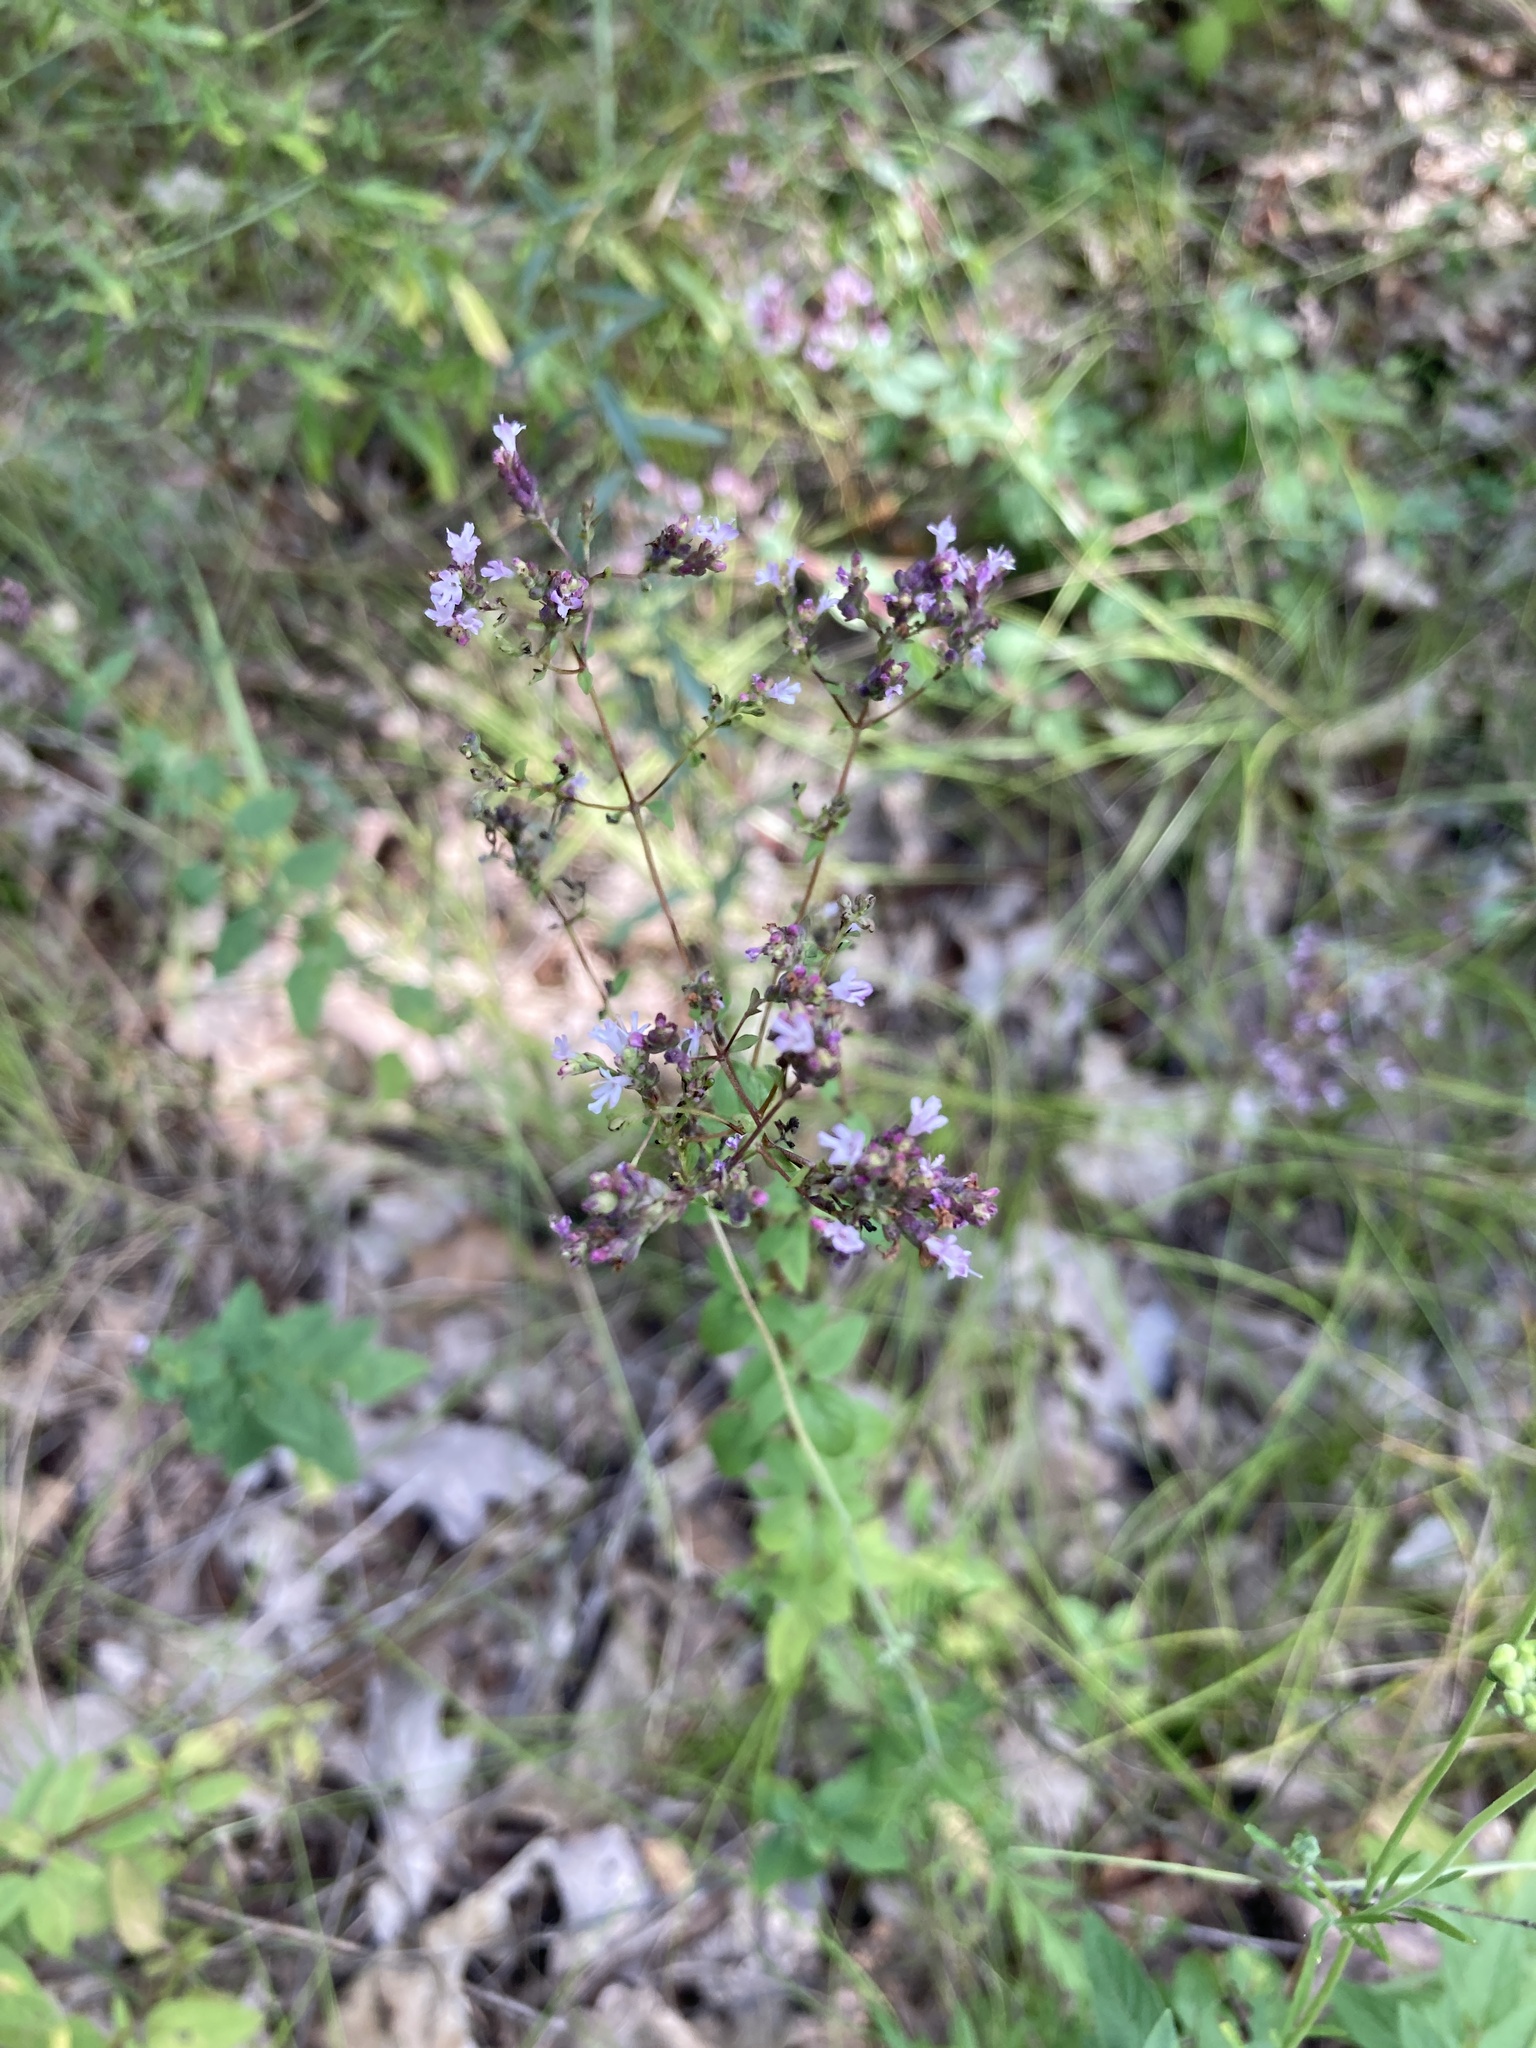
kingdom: Plantae
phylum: Tracheophyta
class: Magnoliopsida
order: Lamiales
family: Lamiaceae
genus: Origanum
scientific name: Origanum vulgare
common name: Wild marjoram
